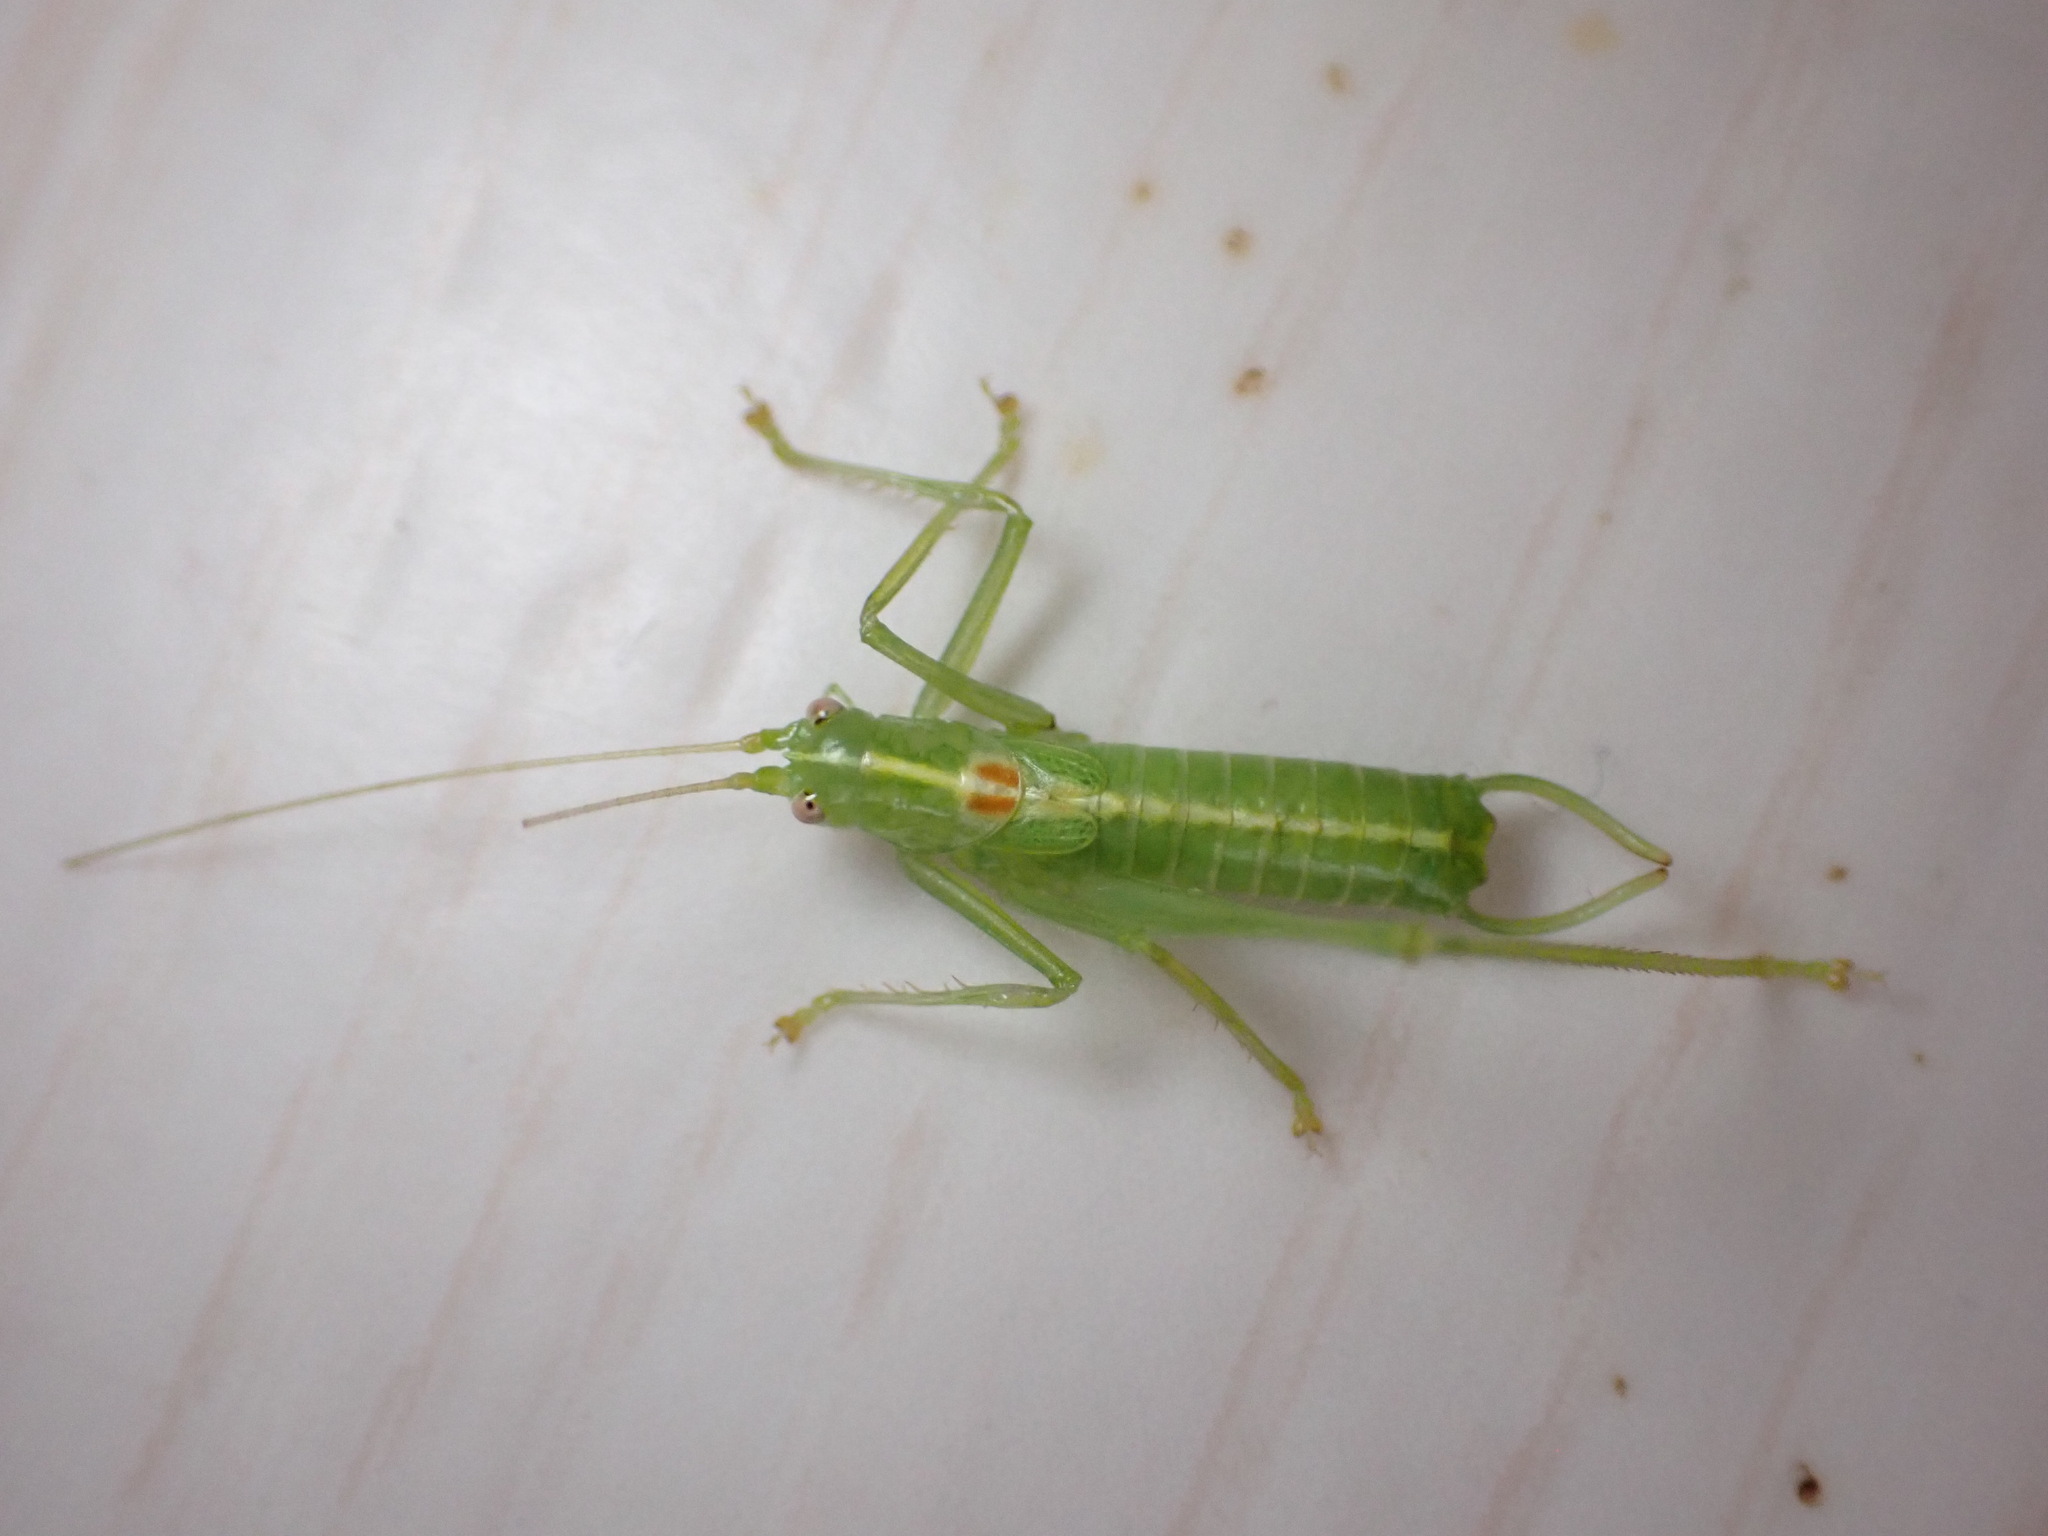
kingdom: Animalia
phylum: Arthropoda
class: Insecta
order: Orthoptera
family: Tettigoniidae
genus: Meconema
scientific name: Meconema meridionale
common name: Southern oak bush-cricket
